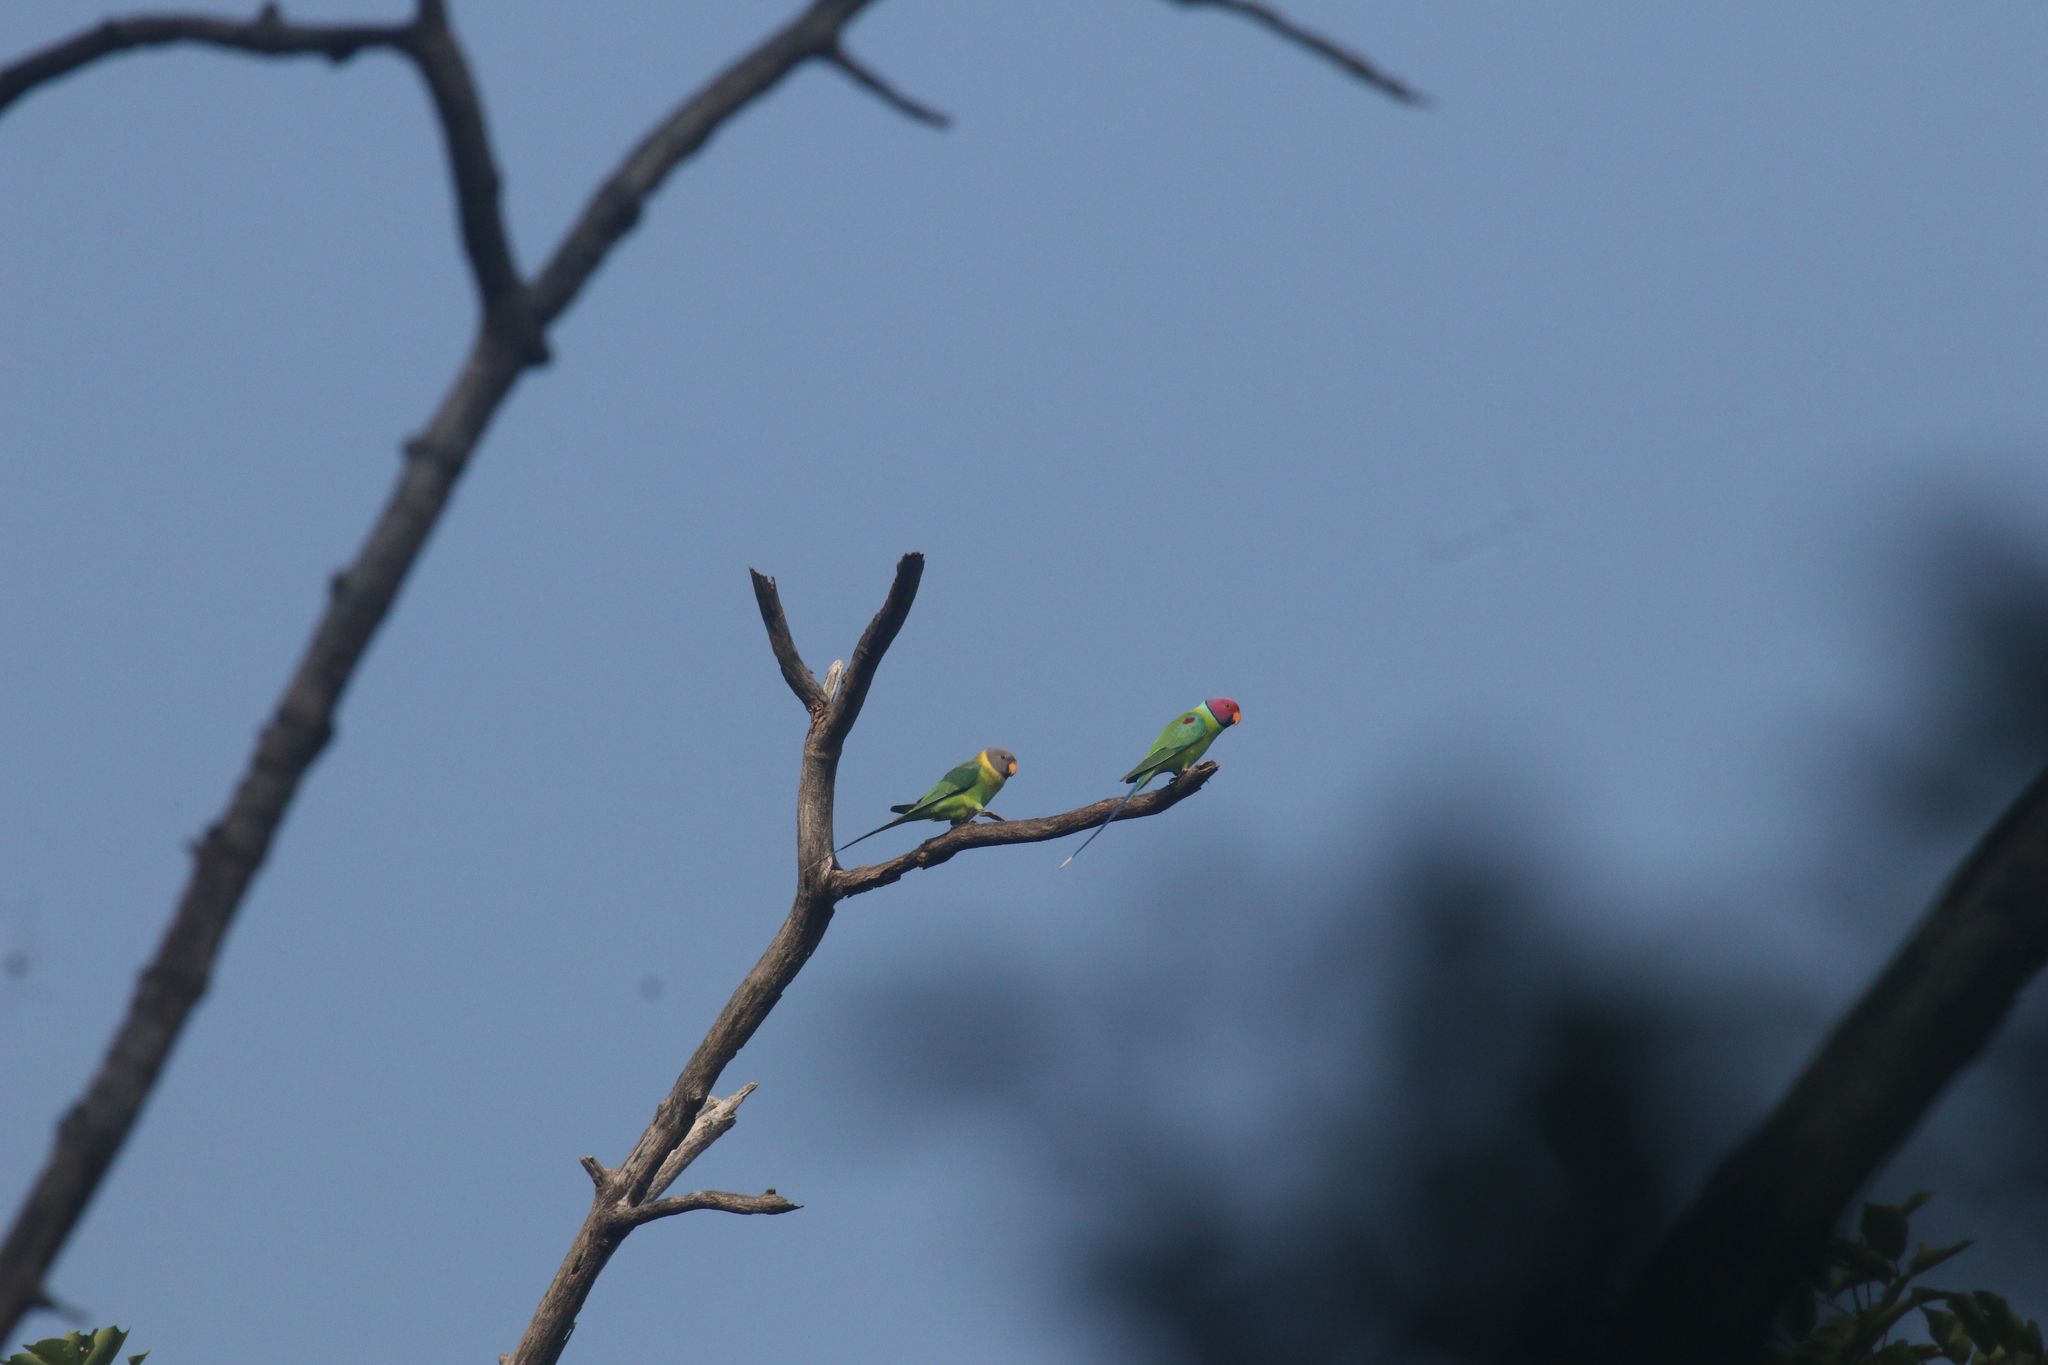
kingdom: Animalia
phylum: Chordata
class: Aves
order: Psittaciformes
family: Psittacidae
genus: Psittacula
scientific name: Psittacula cyanocephala
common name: Plum-headed parakeet
